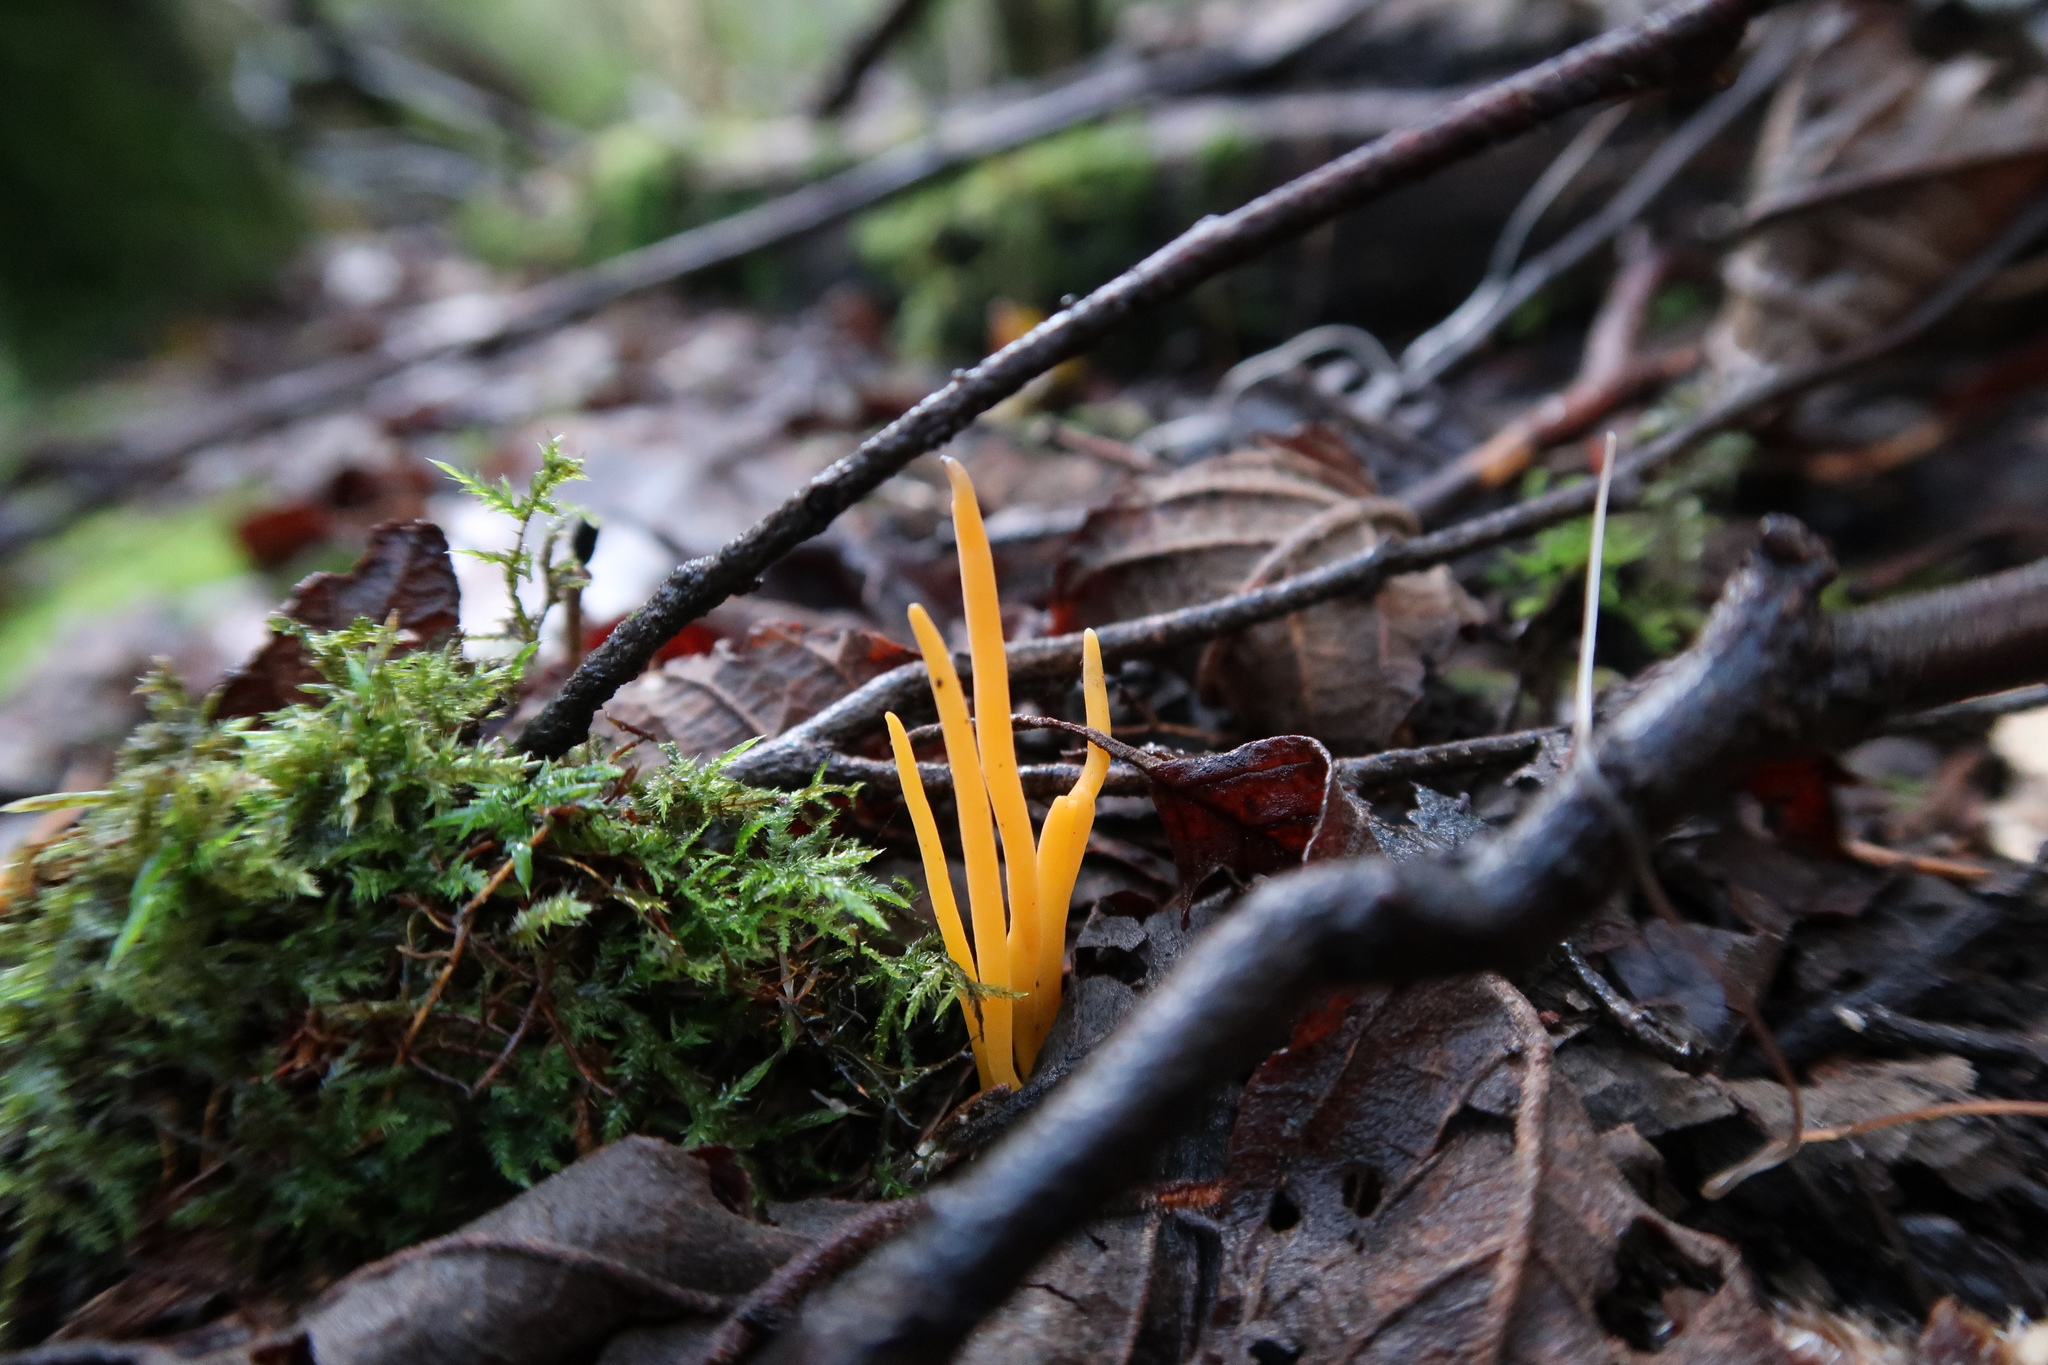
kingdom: Fungi
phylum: Basidiomycota
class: Agaricomycetes
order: Agaricales
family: Clavariaceae
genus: Clavulinopsis
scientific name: Clavulinopsis amoena
